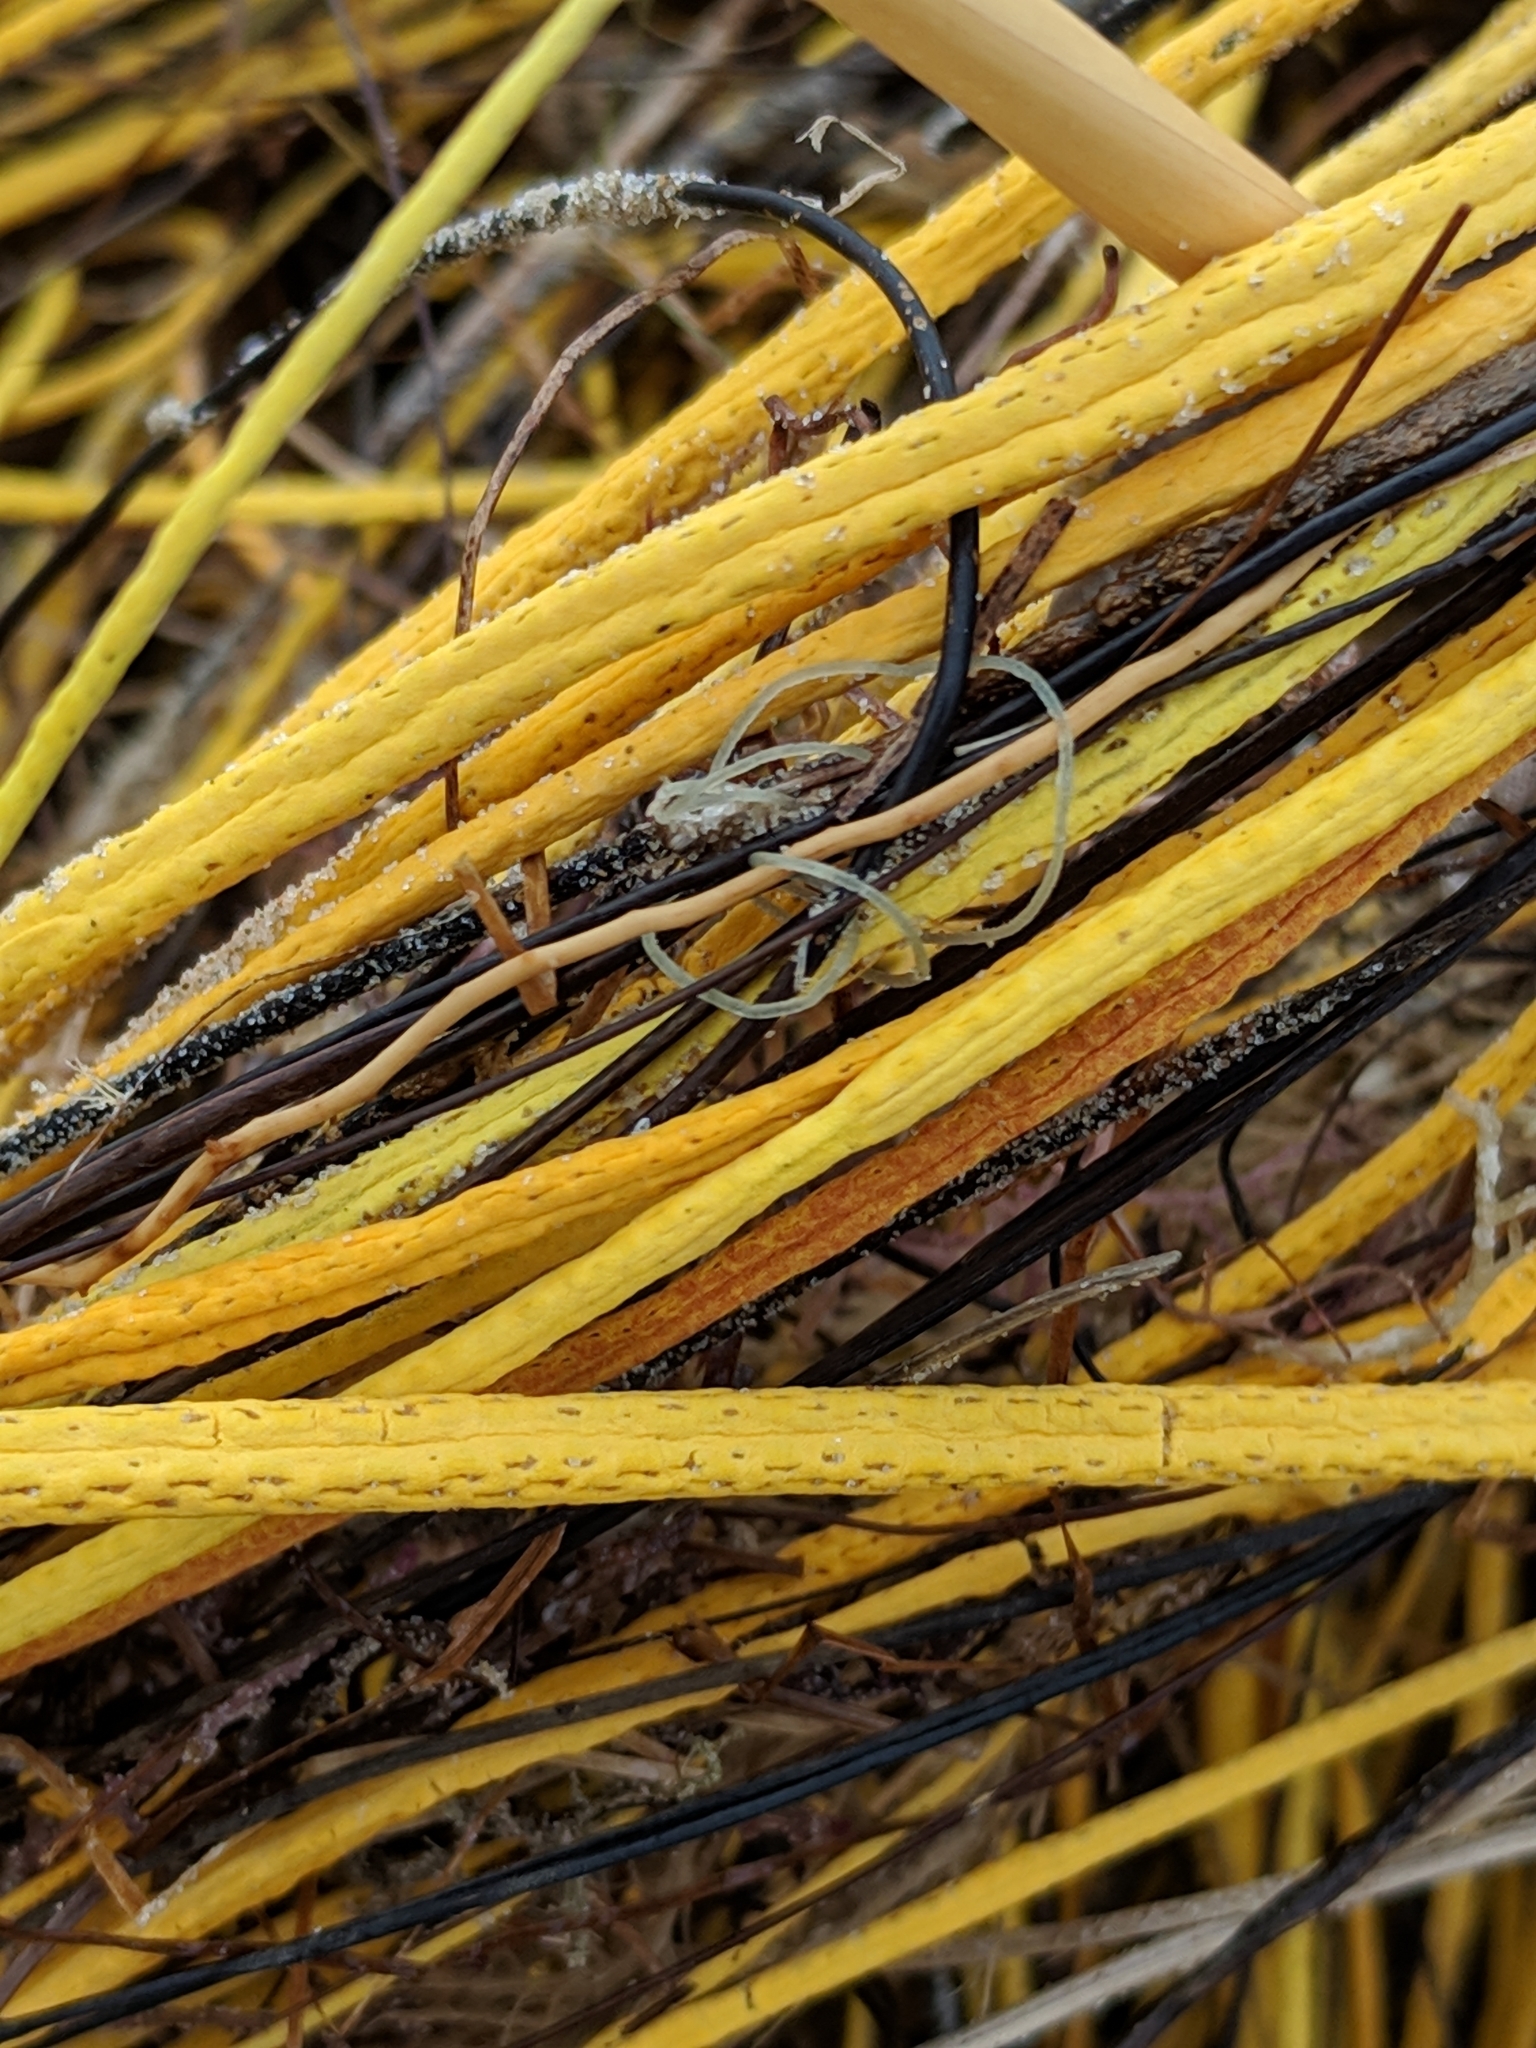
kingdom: Animalia
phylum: Cnidaria
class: Anthozoa
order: Malacalcyonacea
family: Gorgoniidae
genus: Leptogorgia
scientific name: Leptogorgia setacea
